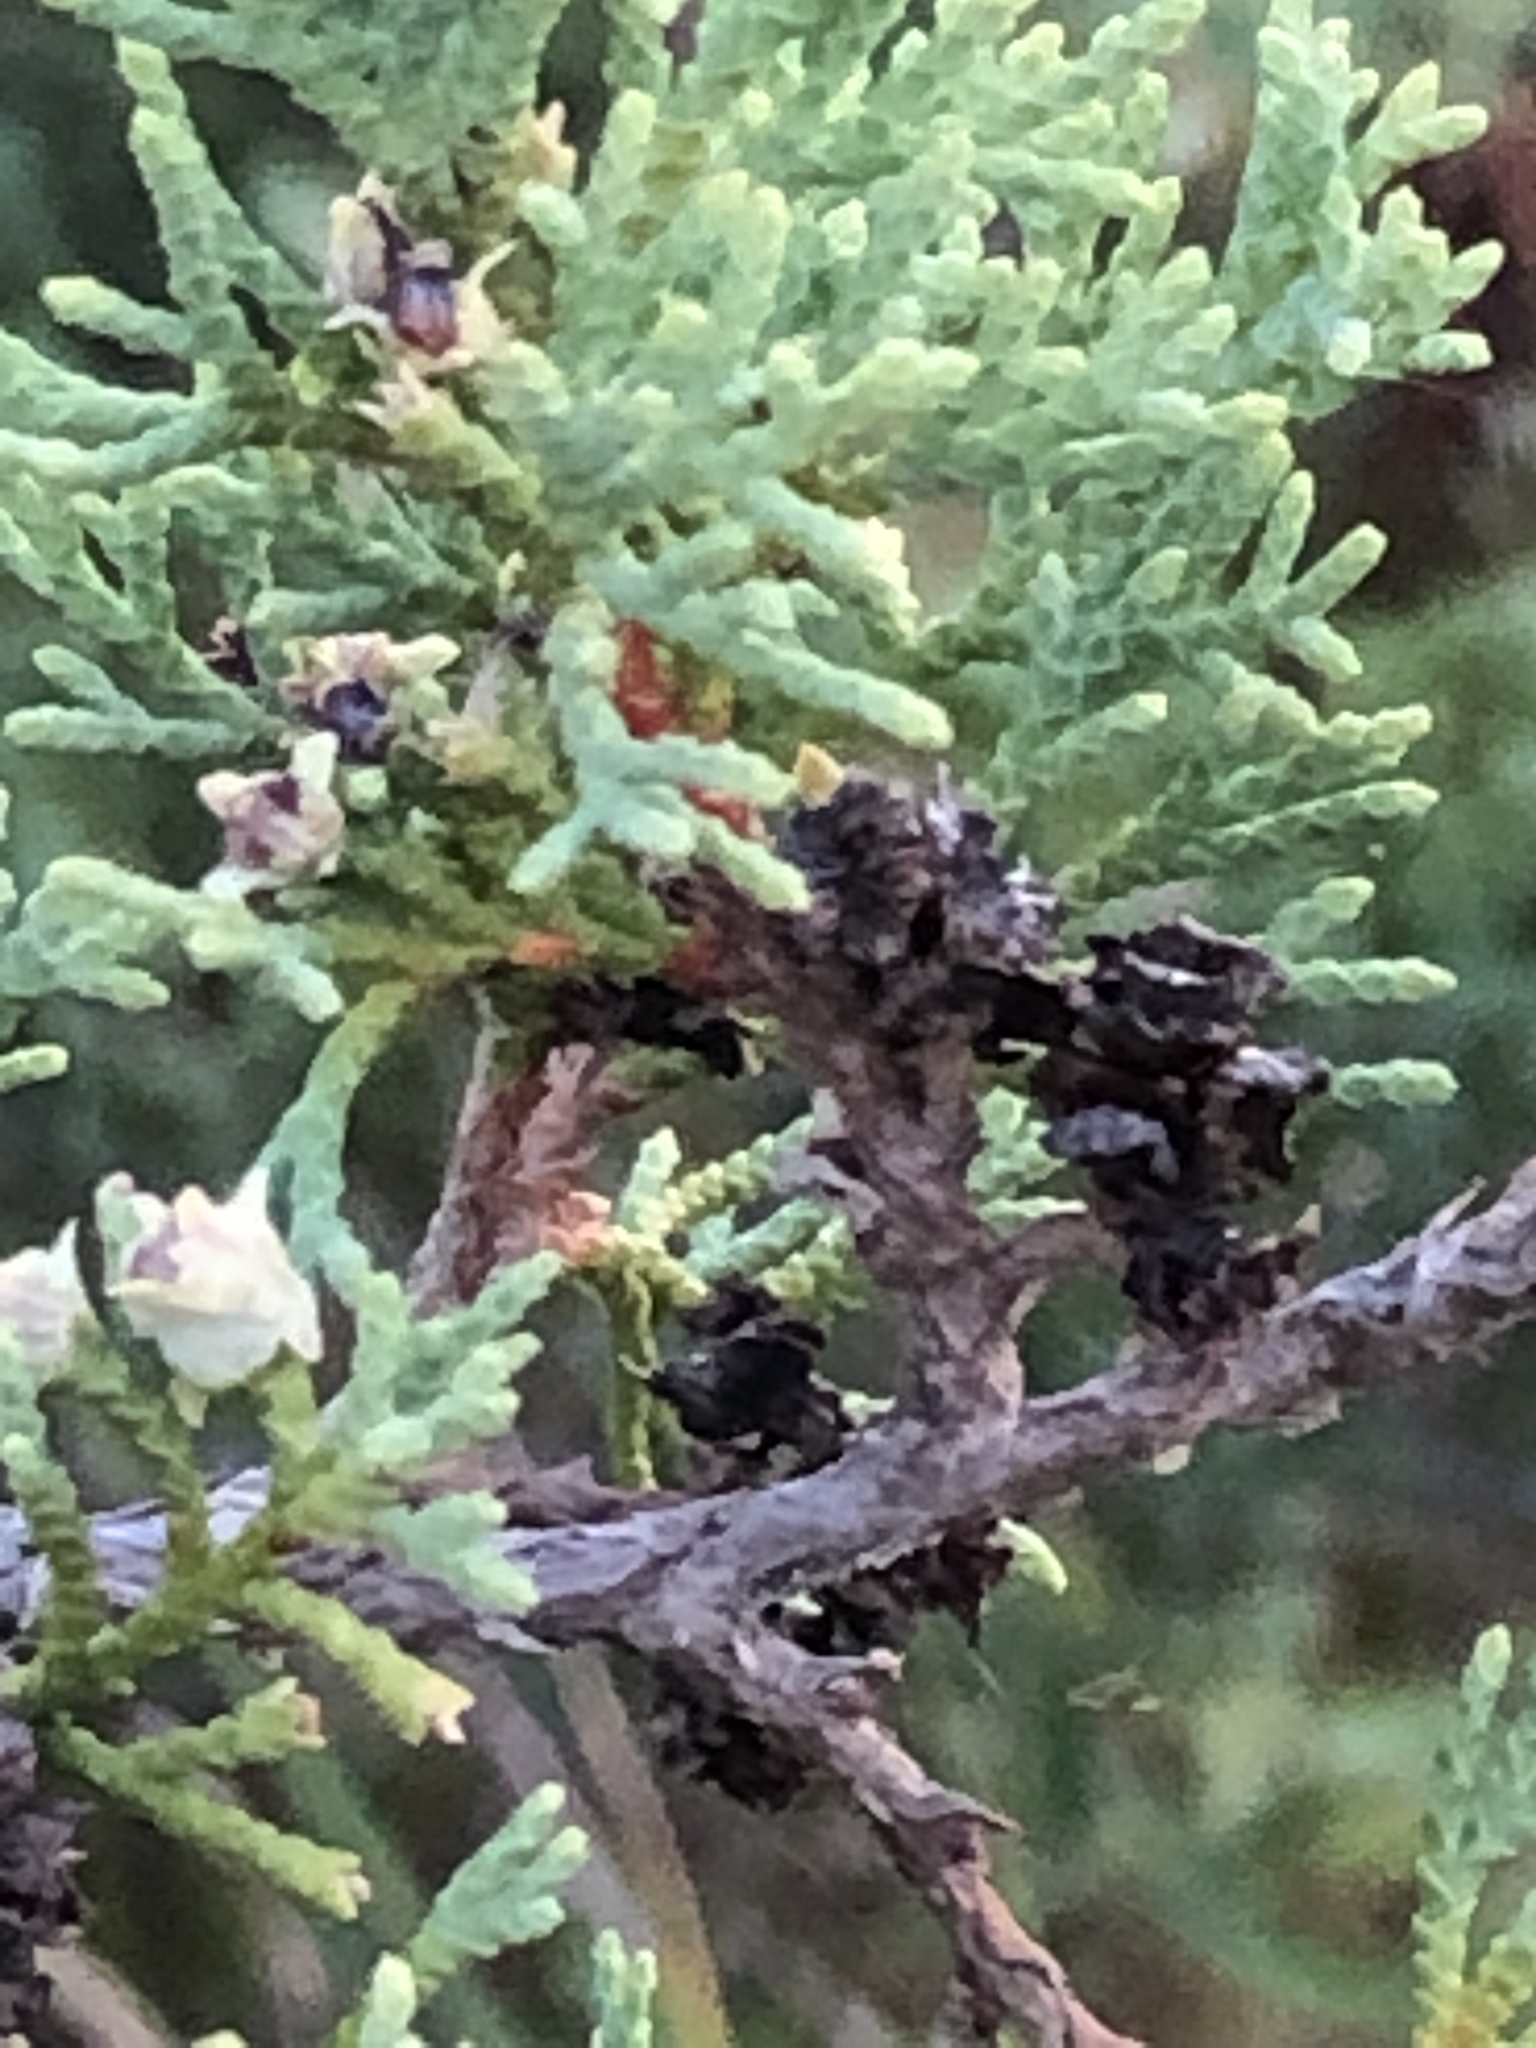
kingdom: Plantae
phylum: Tracheophyta
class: Pinopsida
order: Pinales
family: Cupressaceae
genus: Chamaecyparis
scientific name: Chamaecyparis thyoides
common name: Atlantic white cedar
